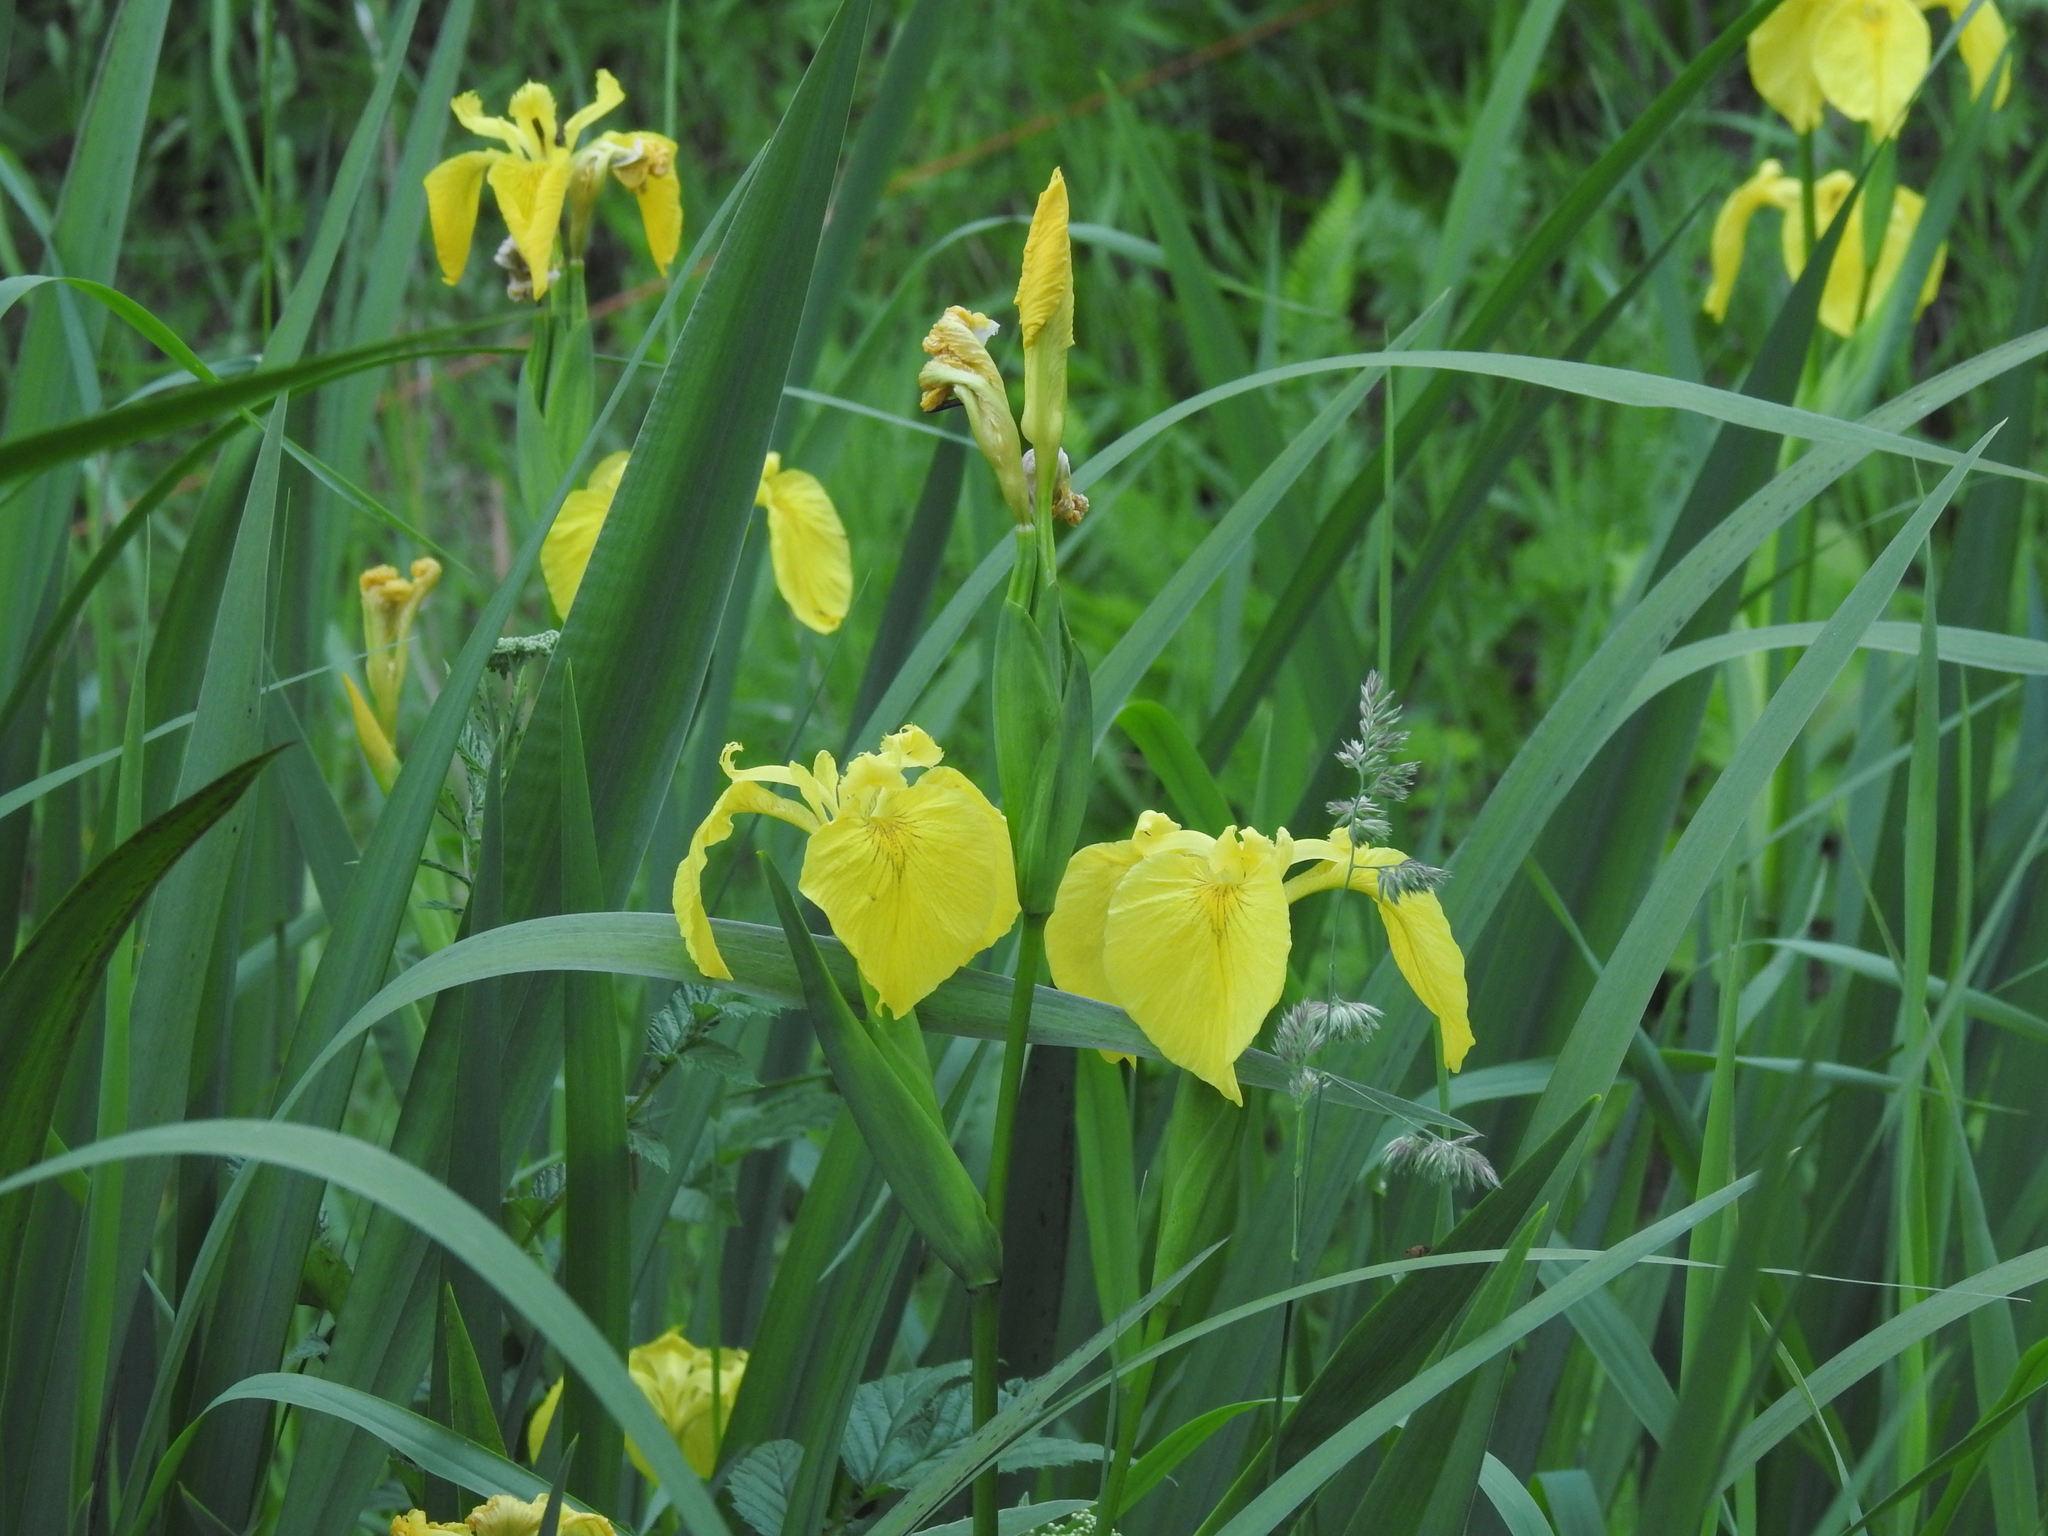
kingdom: Plantae
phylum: Tracheophyta
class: Liliopsida
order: Asparagales
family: Iridaceae
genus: Iris
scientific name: Iris pseudacorus
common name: Yellow flag
